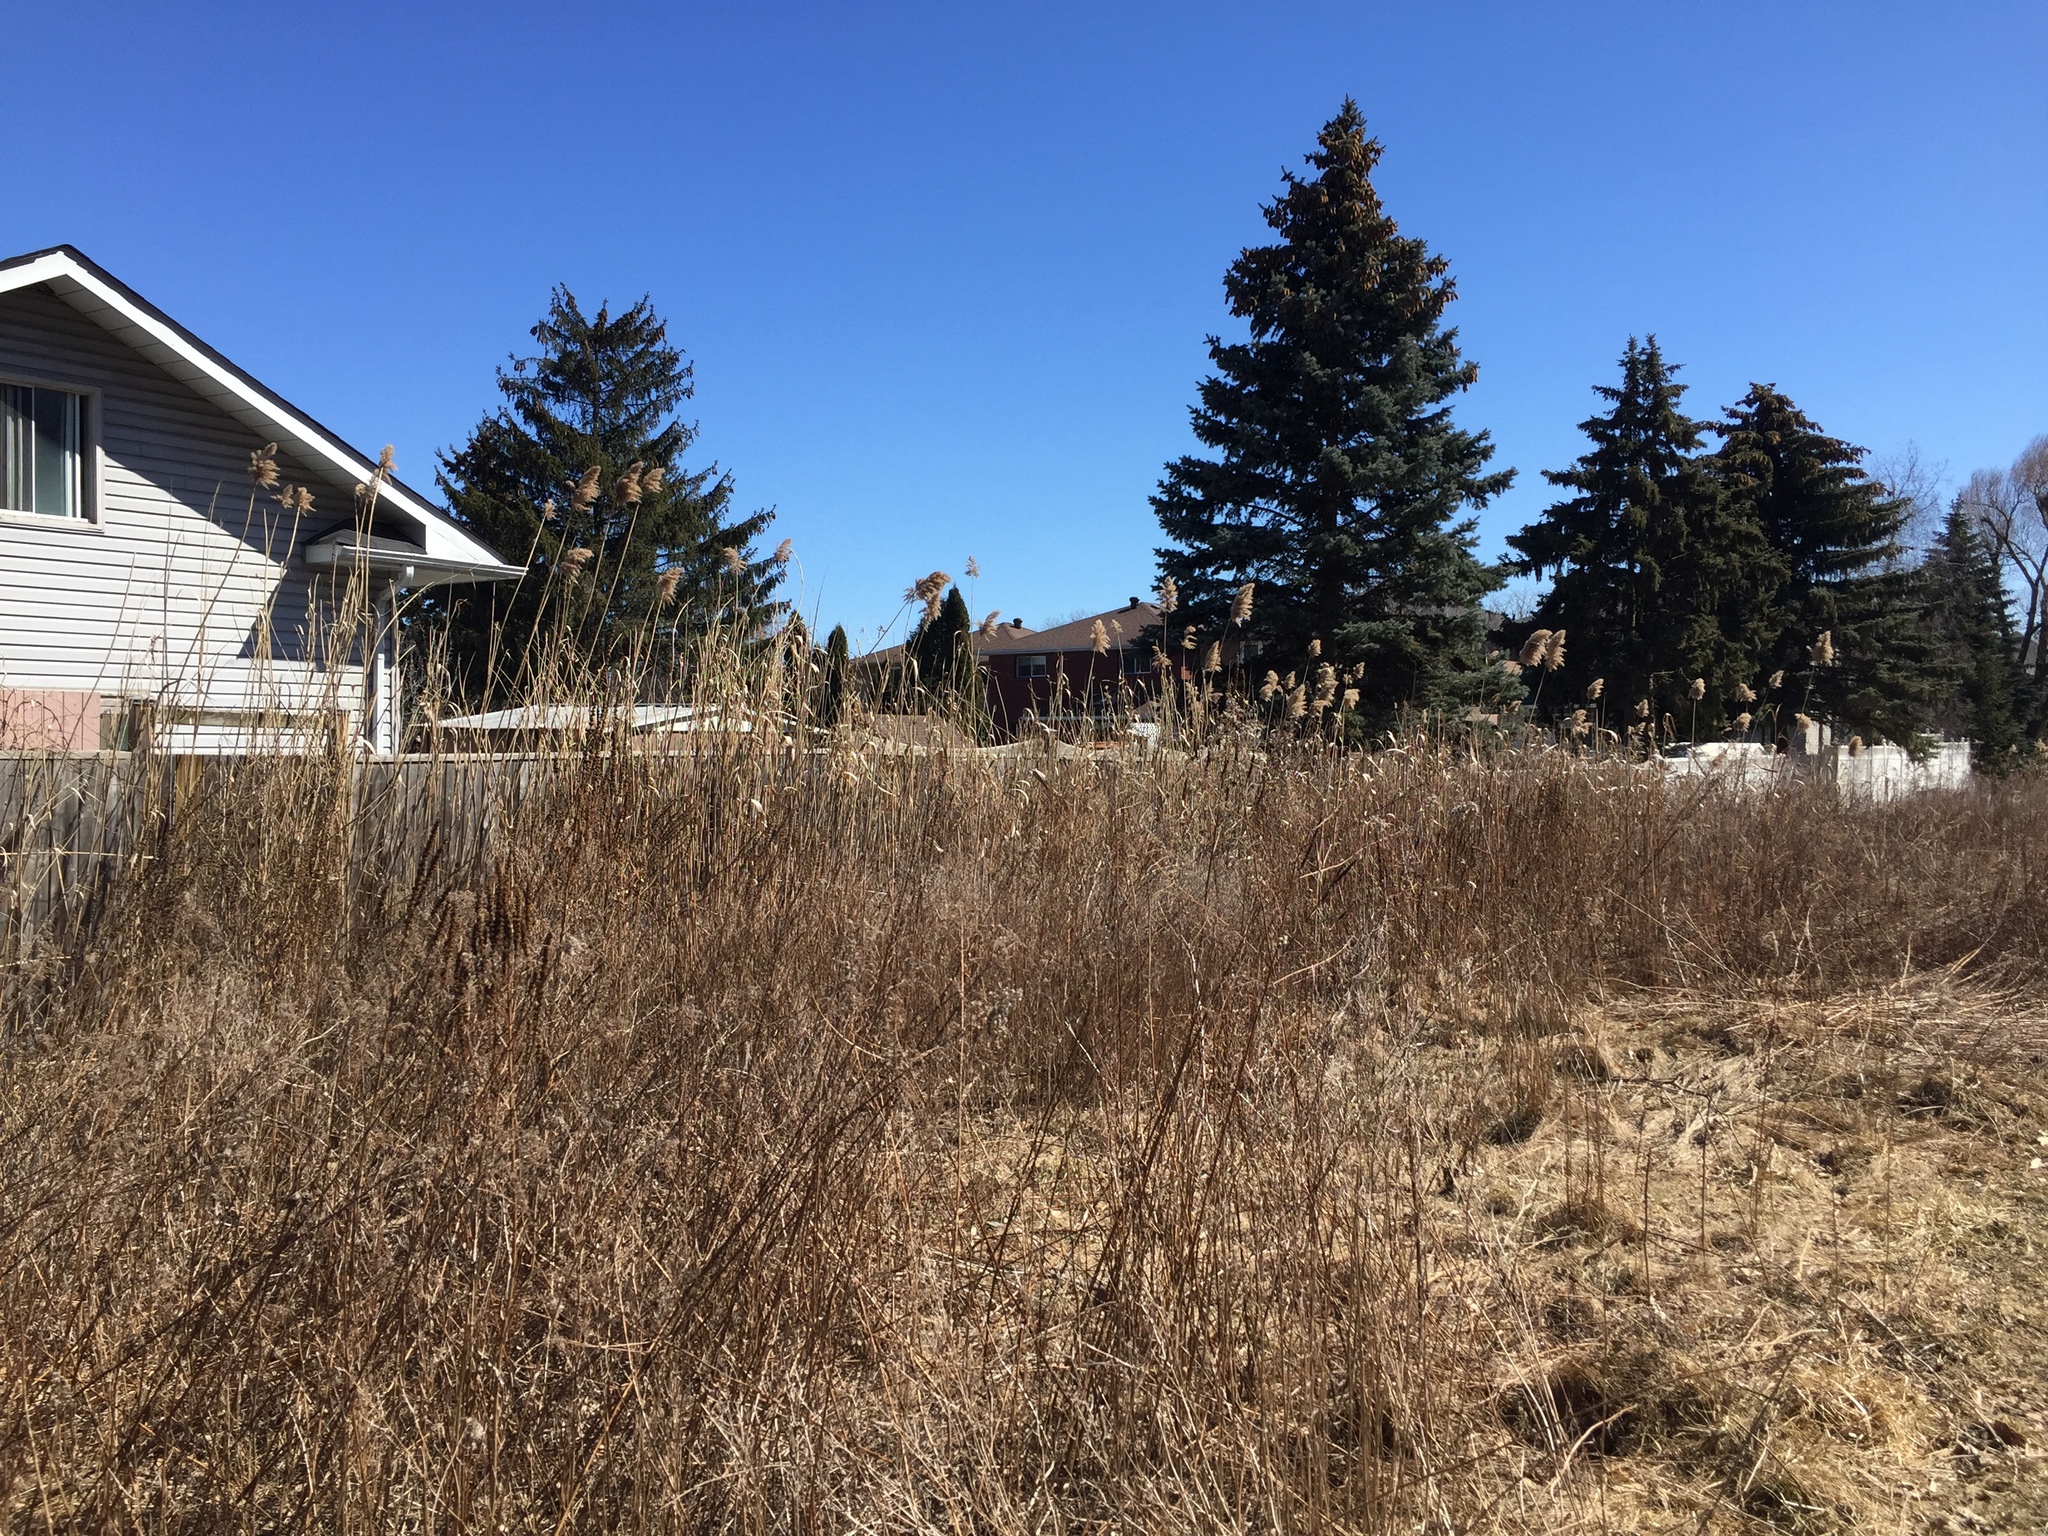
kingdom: Plantae
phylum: Tracheophyta
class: Liliopsida
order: Poales
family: Poaceae
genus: Phragmites
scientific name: Phragmites australis
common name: Common reed
